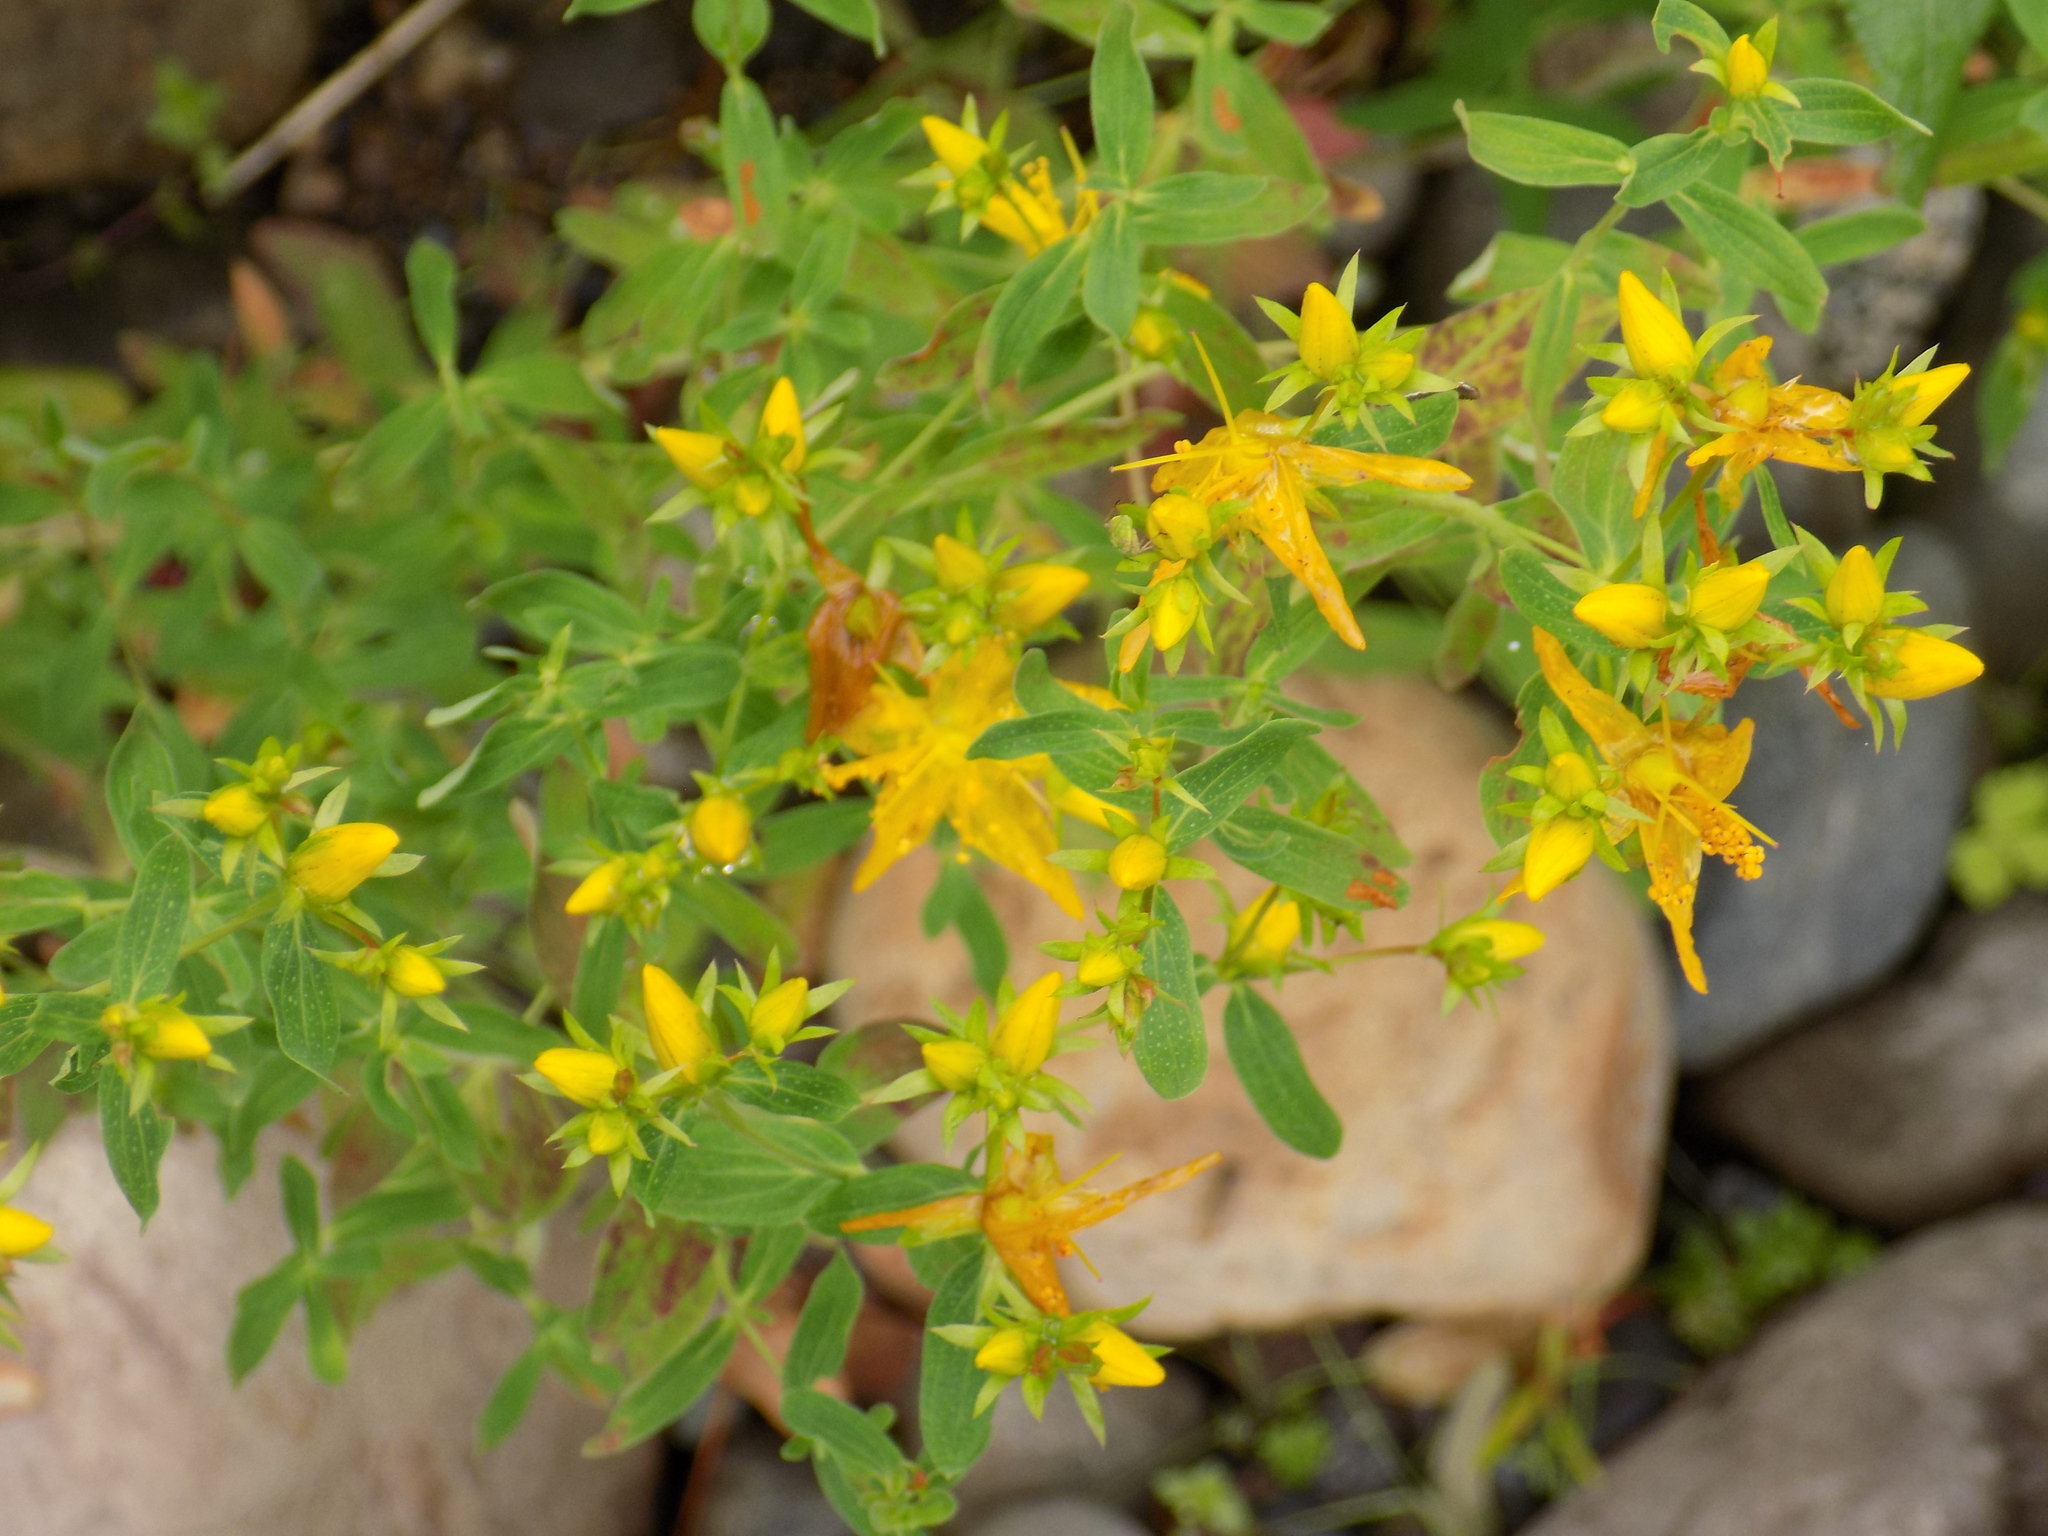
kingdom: Plantae
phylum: Tracheophyta
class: Magnoliopsida
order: Malpighiales
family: Hypericaceae
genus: Hypericum
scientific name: Hypericum perforatum
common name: Common st. johnswort
